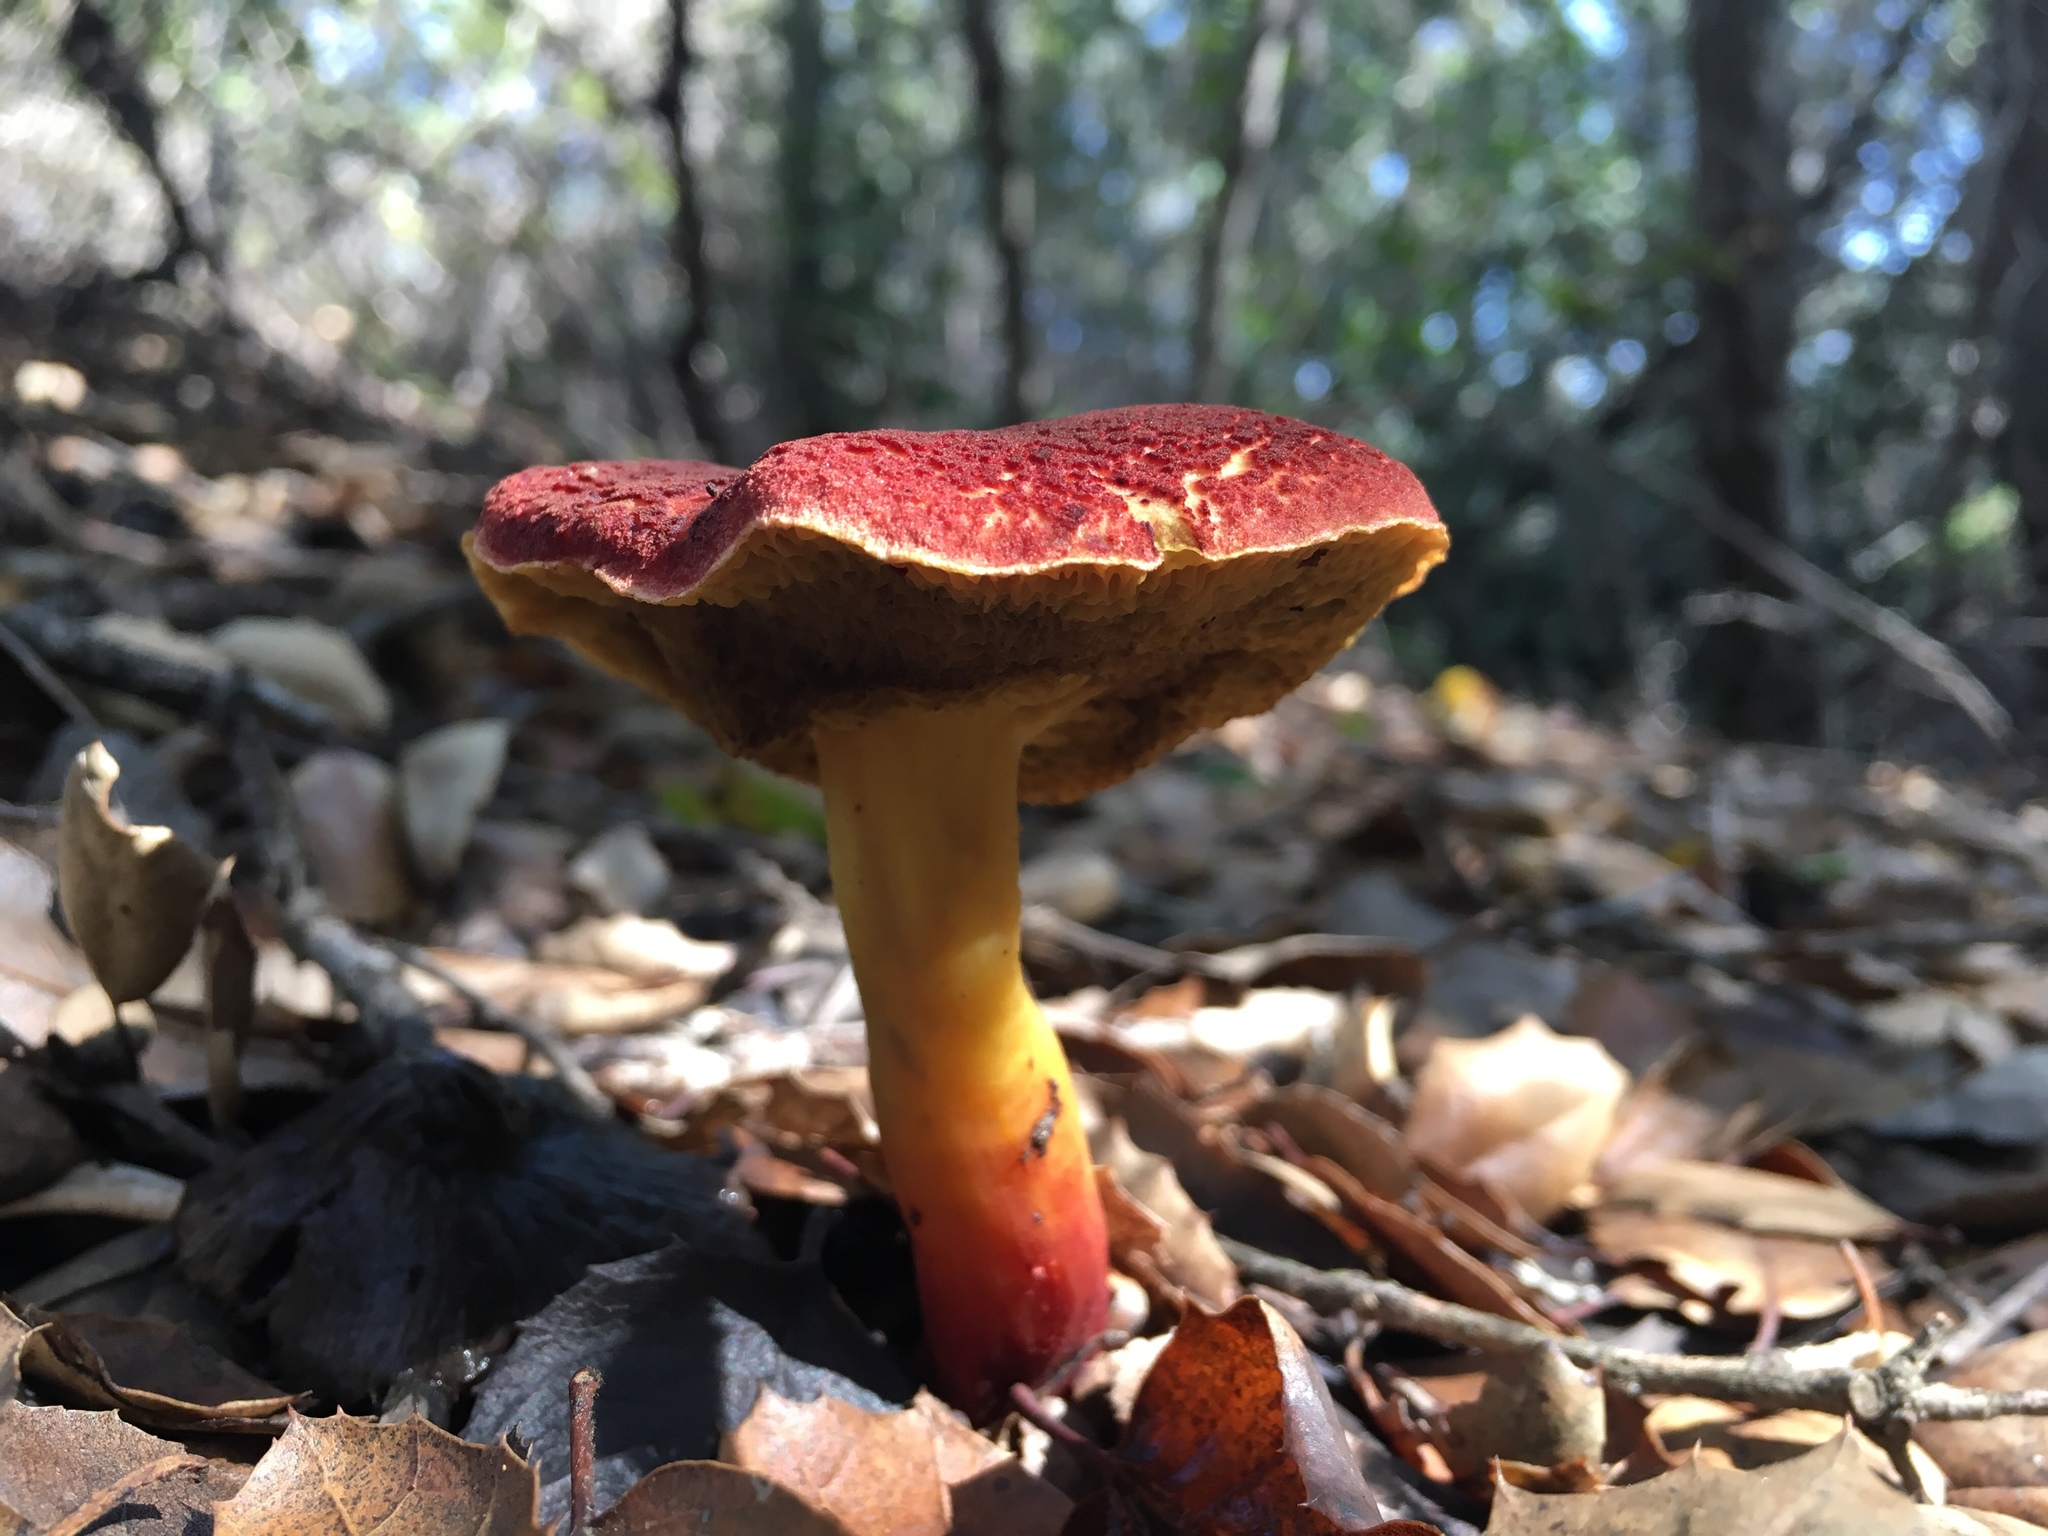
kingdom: Fungi
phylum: Basidiomycota
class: Agaricomycetes
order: Boletales
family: Boletaceae
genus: Xerocomellus
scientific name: Xerocomellus dryophilus
